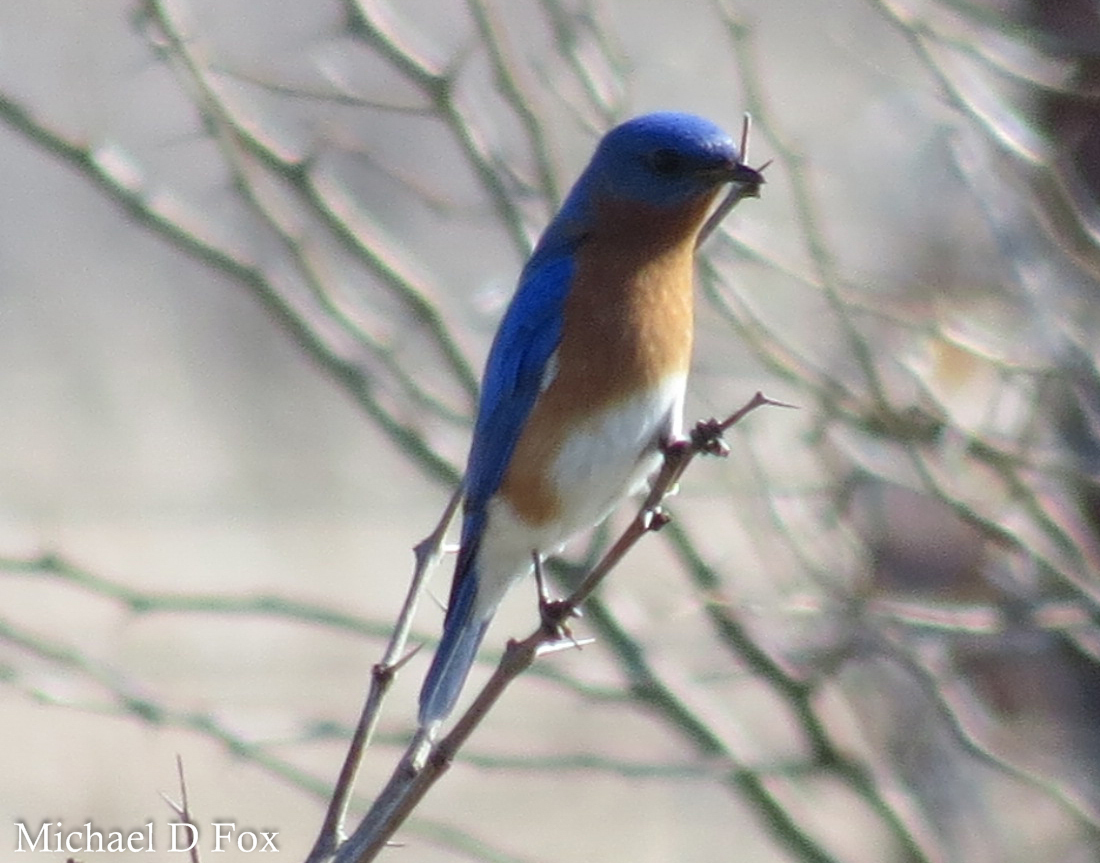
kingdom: Animalia
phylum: Chordata
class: Aves
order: Passeriformes
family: Turdidae
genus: Sialia
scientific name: Sialia sialis
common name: Eastern bluebird
